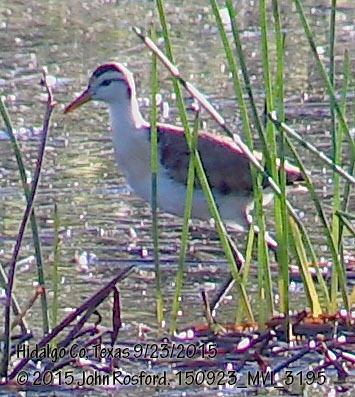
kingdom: Animalia
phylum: Chordata
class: Aves
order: Charadriiformes
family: Jacanidae
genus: Jacana
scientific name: Jacana spinosa
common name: Northern jacana
